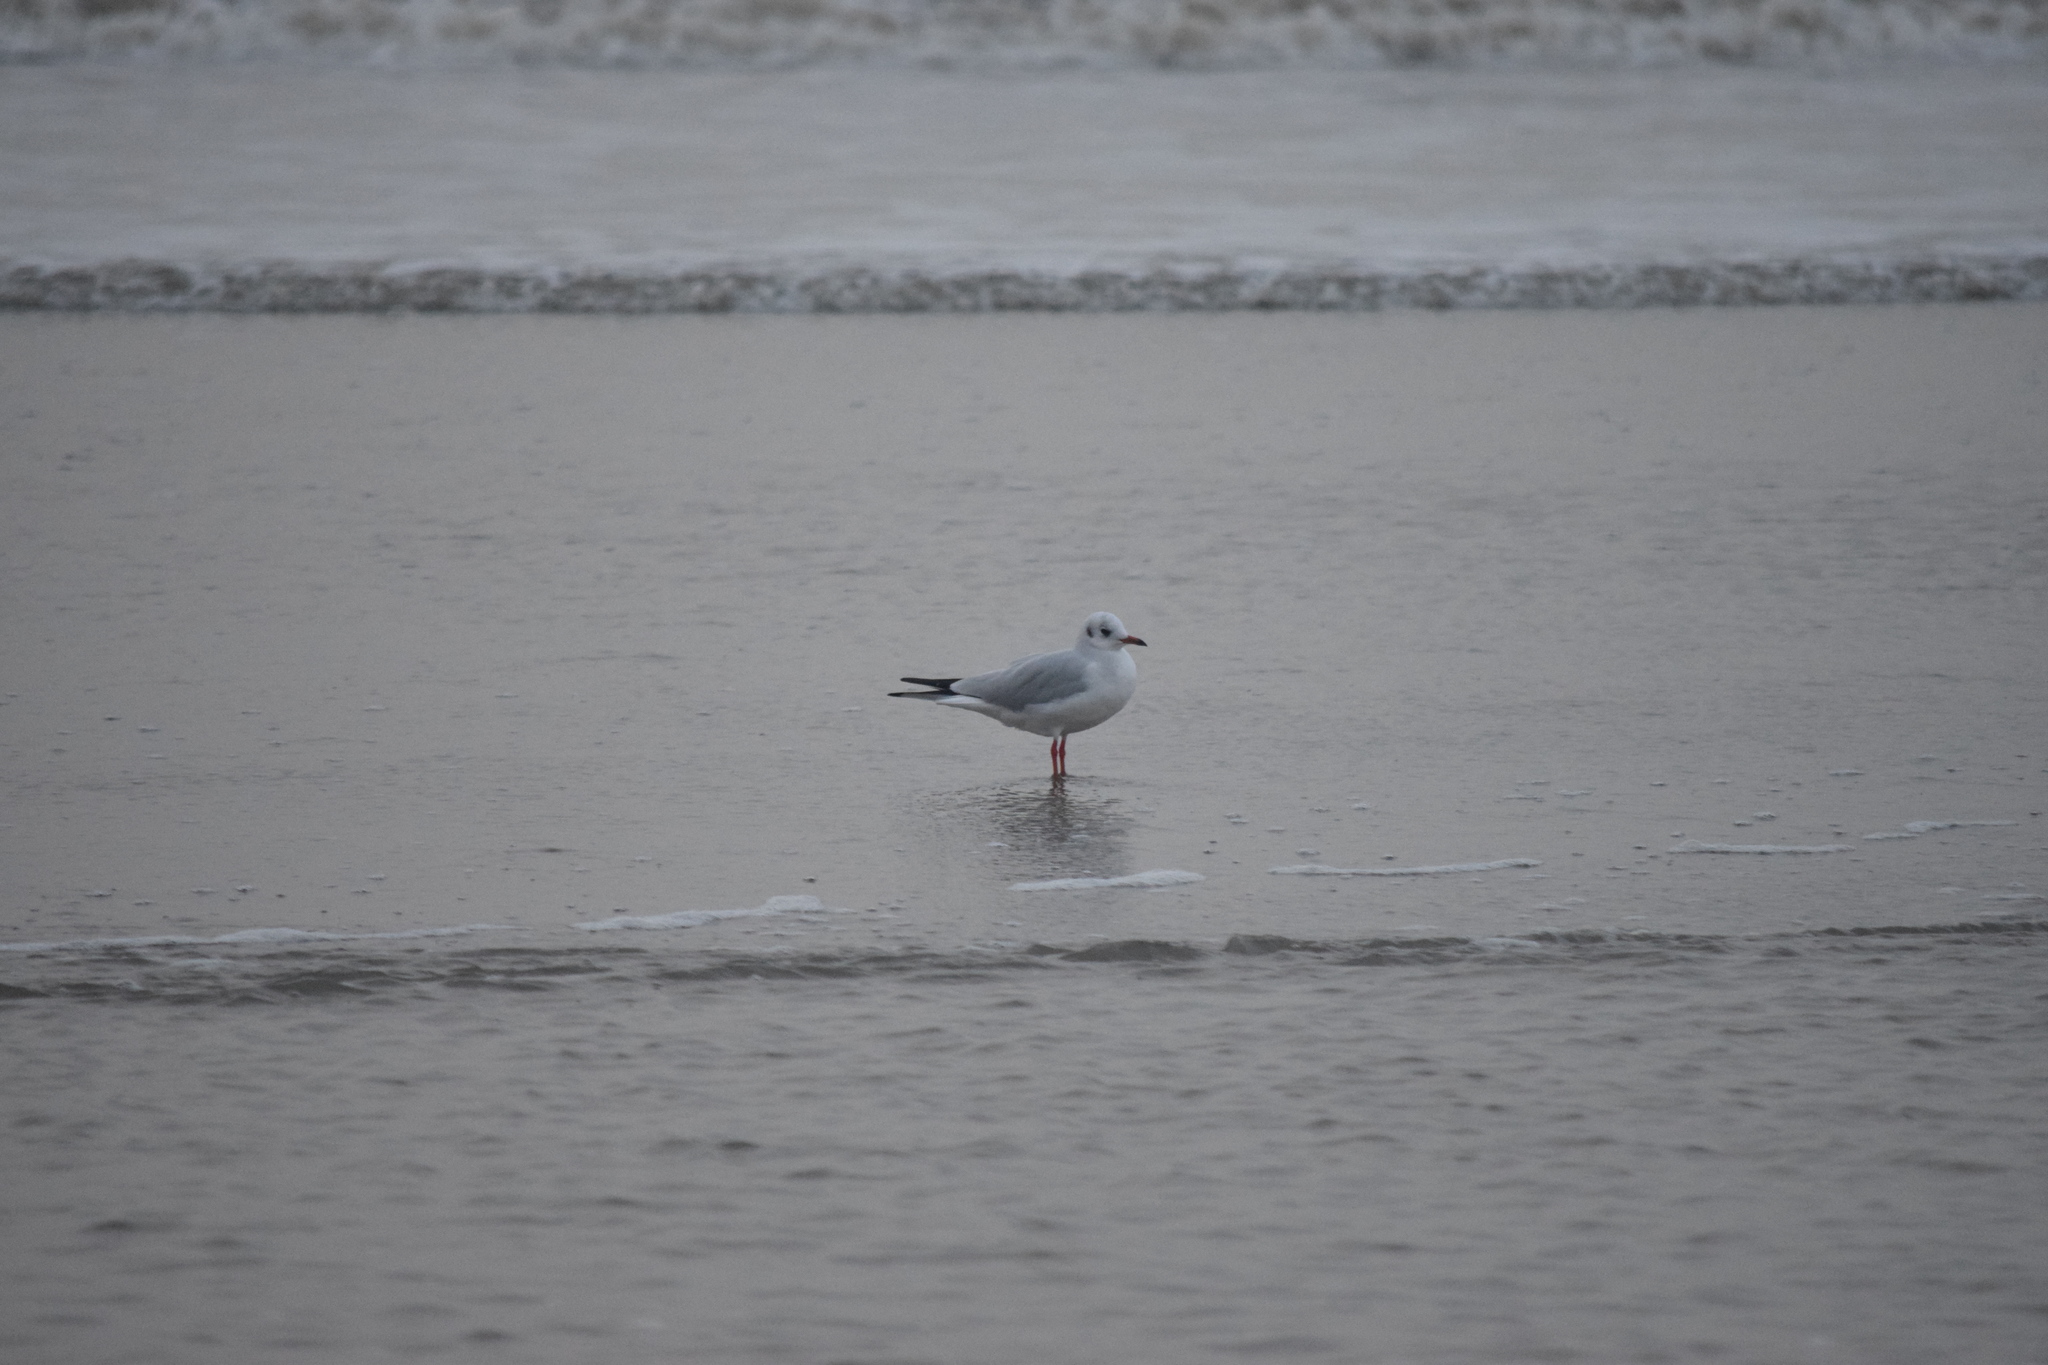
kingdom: Animalia
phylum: Chordata
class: Aves
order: Charadriiformes
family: Laridae
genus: Chroicocephalus
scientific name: Chroicocephalus ridibundus
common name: Black-headed gull
